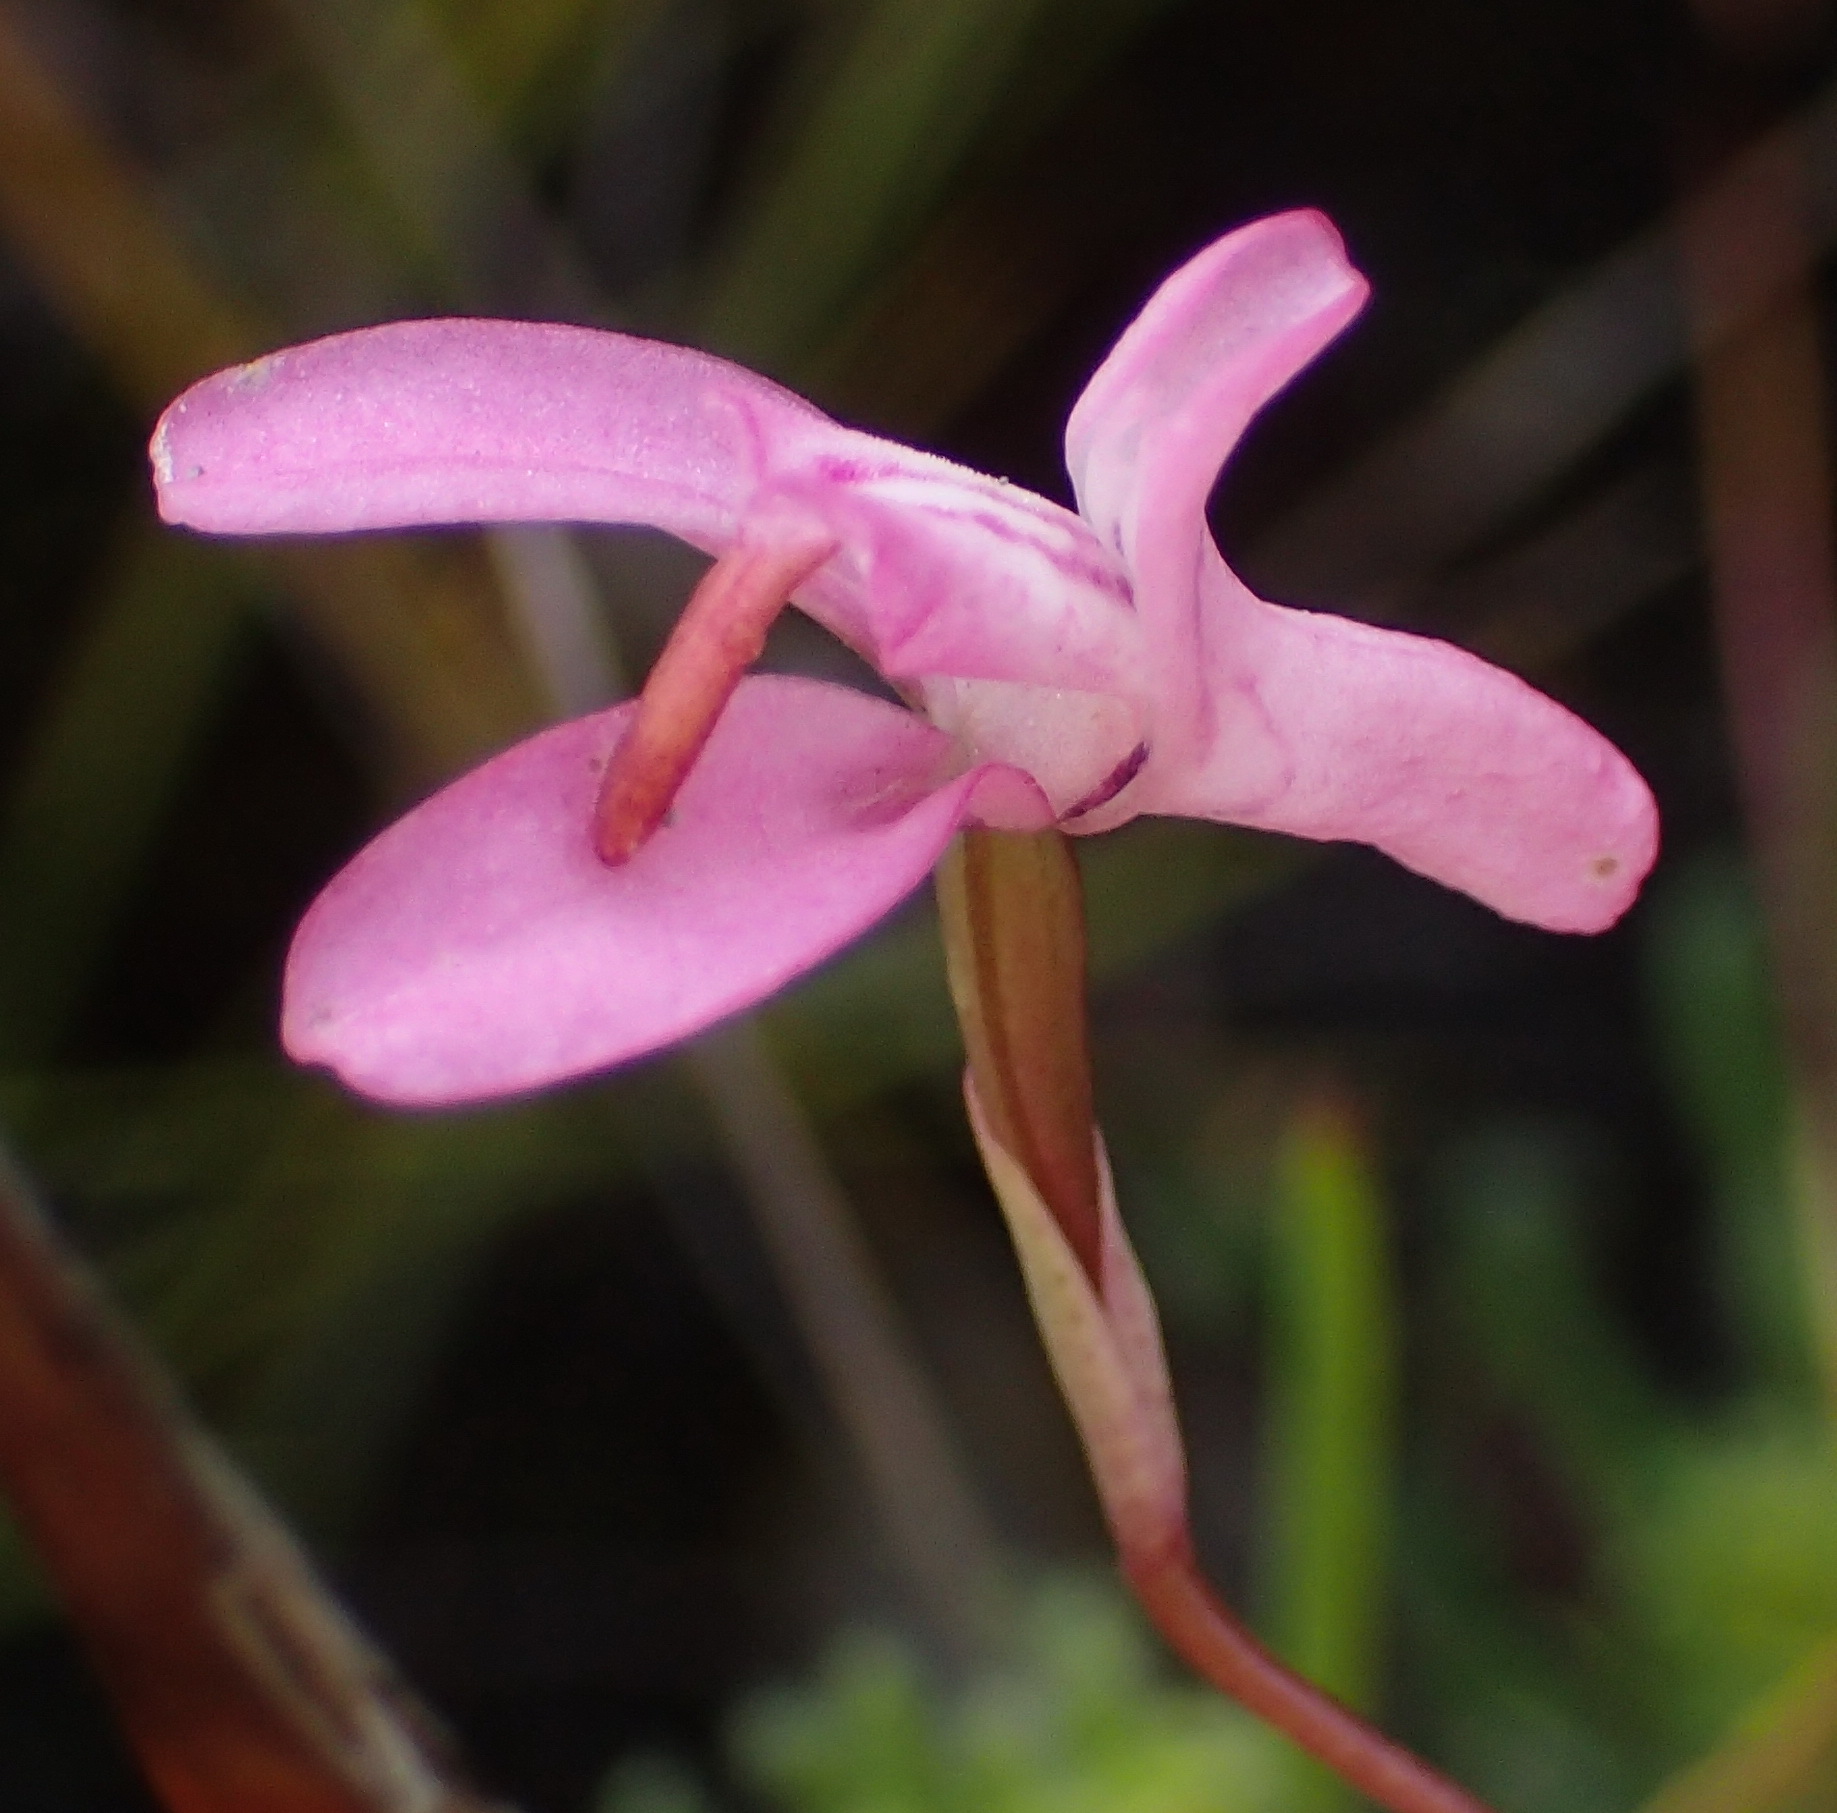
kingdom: Plantae
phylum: Tracheophyta
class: Liliopsida
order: Asparagales
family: Orchidaceae
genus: Disa
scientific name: Disa inflexa
